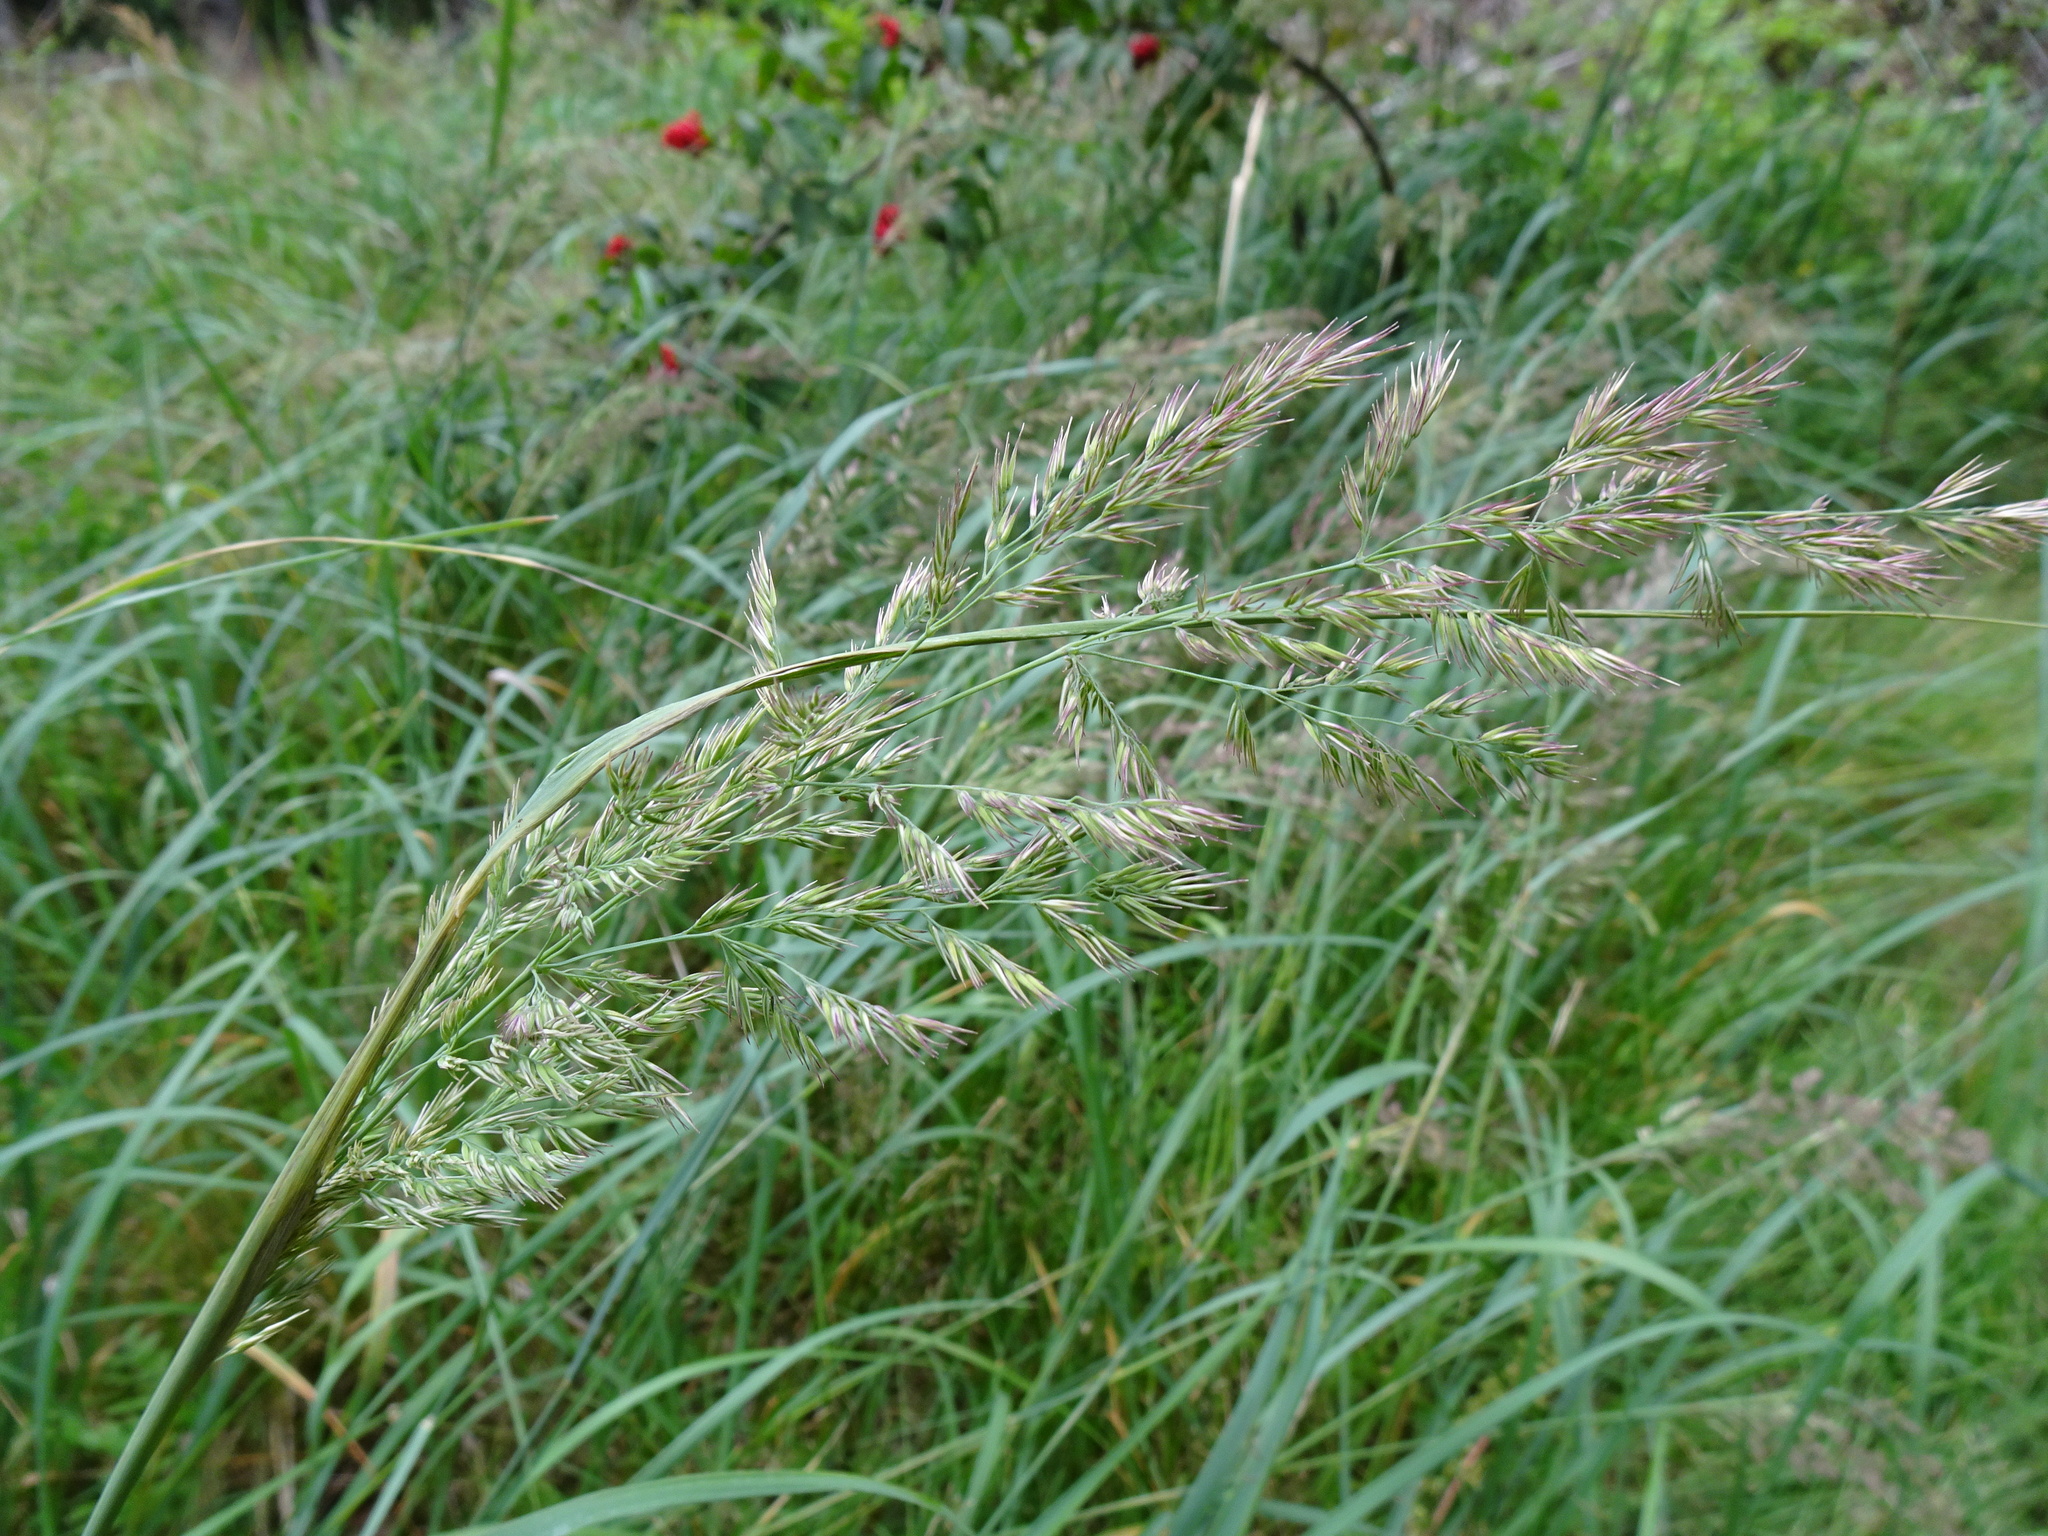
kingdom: Plantae
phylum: Tracheophyta
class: Liliopsida
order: Poales
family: Poaceae
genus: Calamagrostis
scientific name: Calamagrostis epigejos
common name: Wood small-reed
